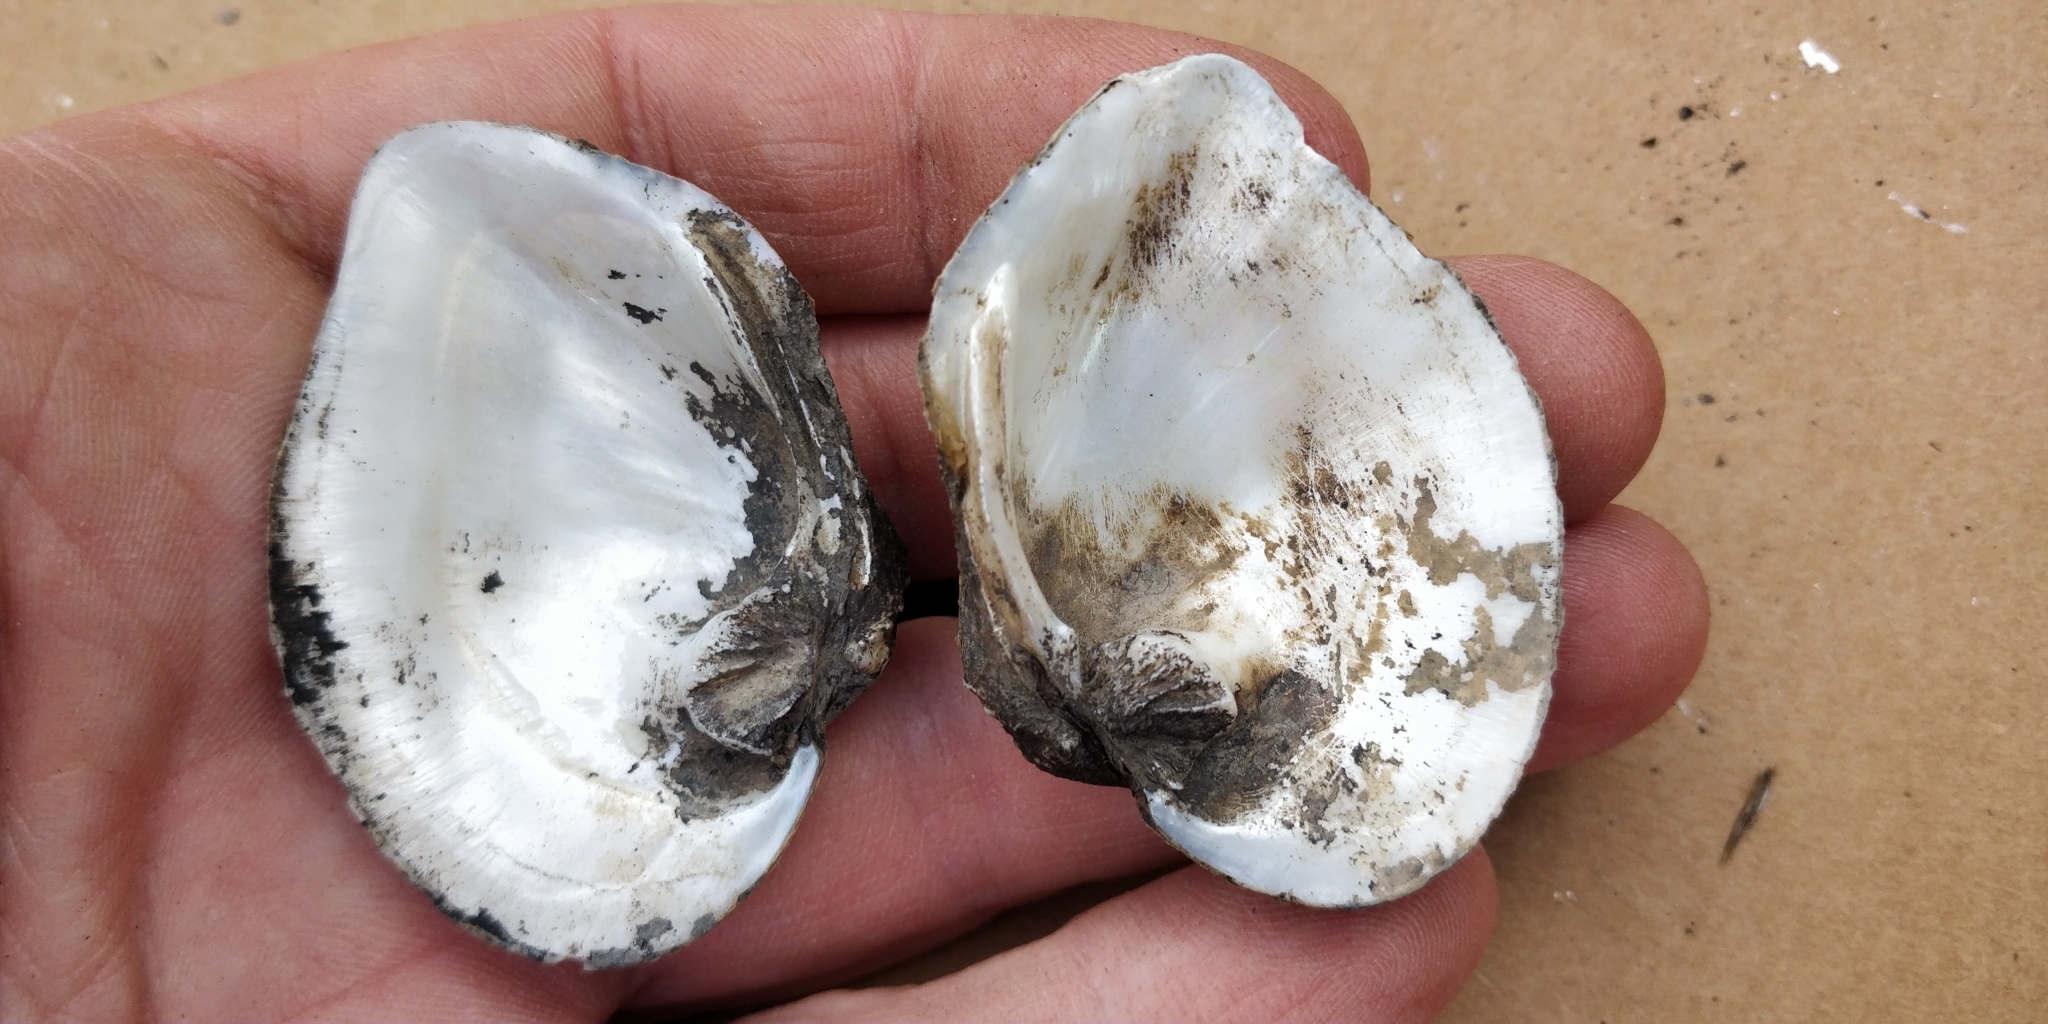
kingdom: Animalia
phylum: Mollusca
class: Bivalvia
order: Unionida
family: Unionidae
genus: Quadrula
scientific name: Quadrula quadrula
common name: Mapleleaf
